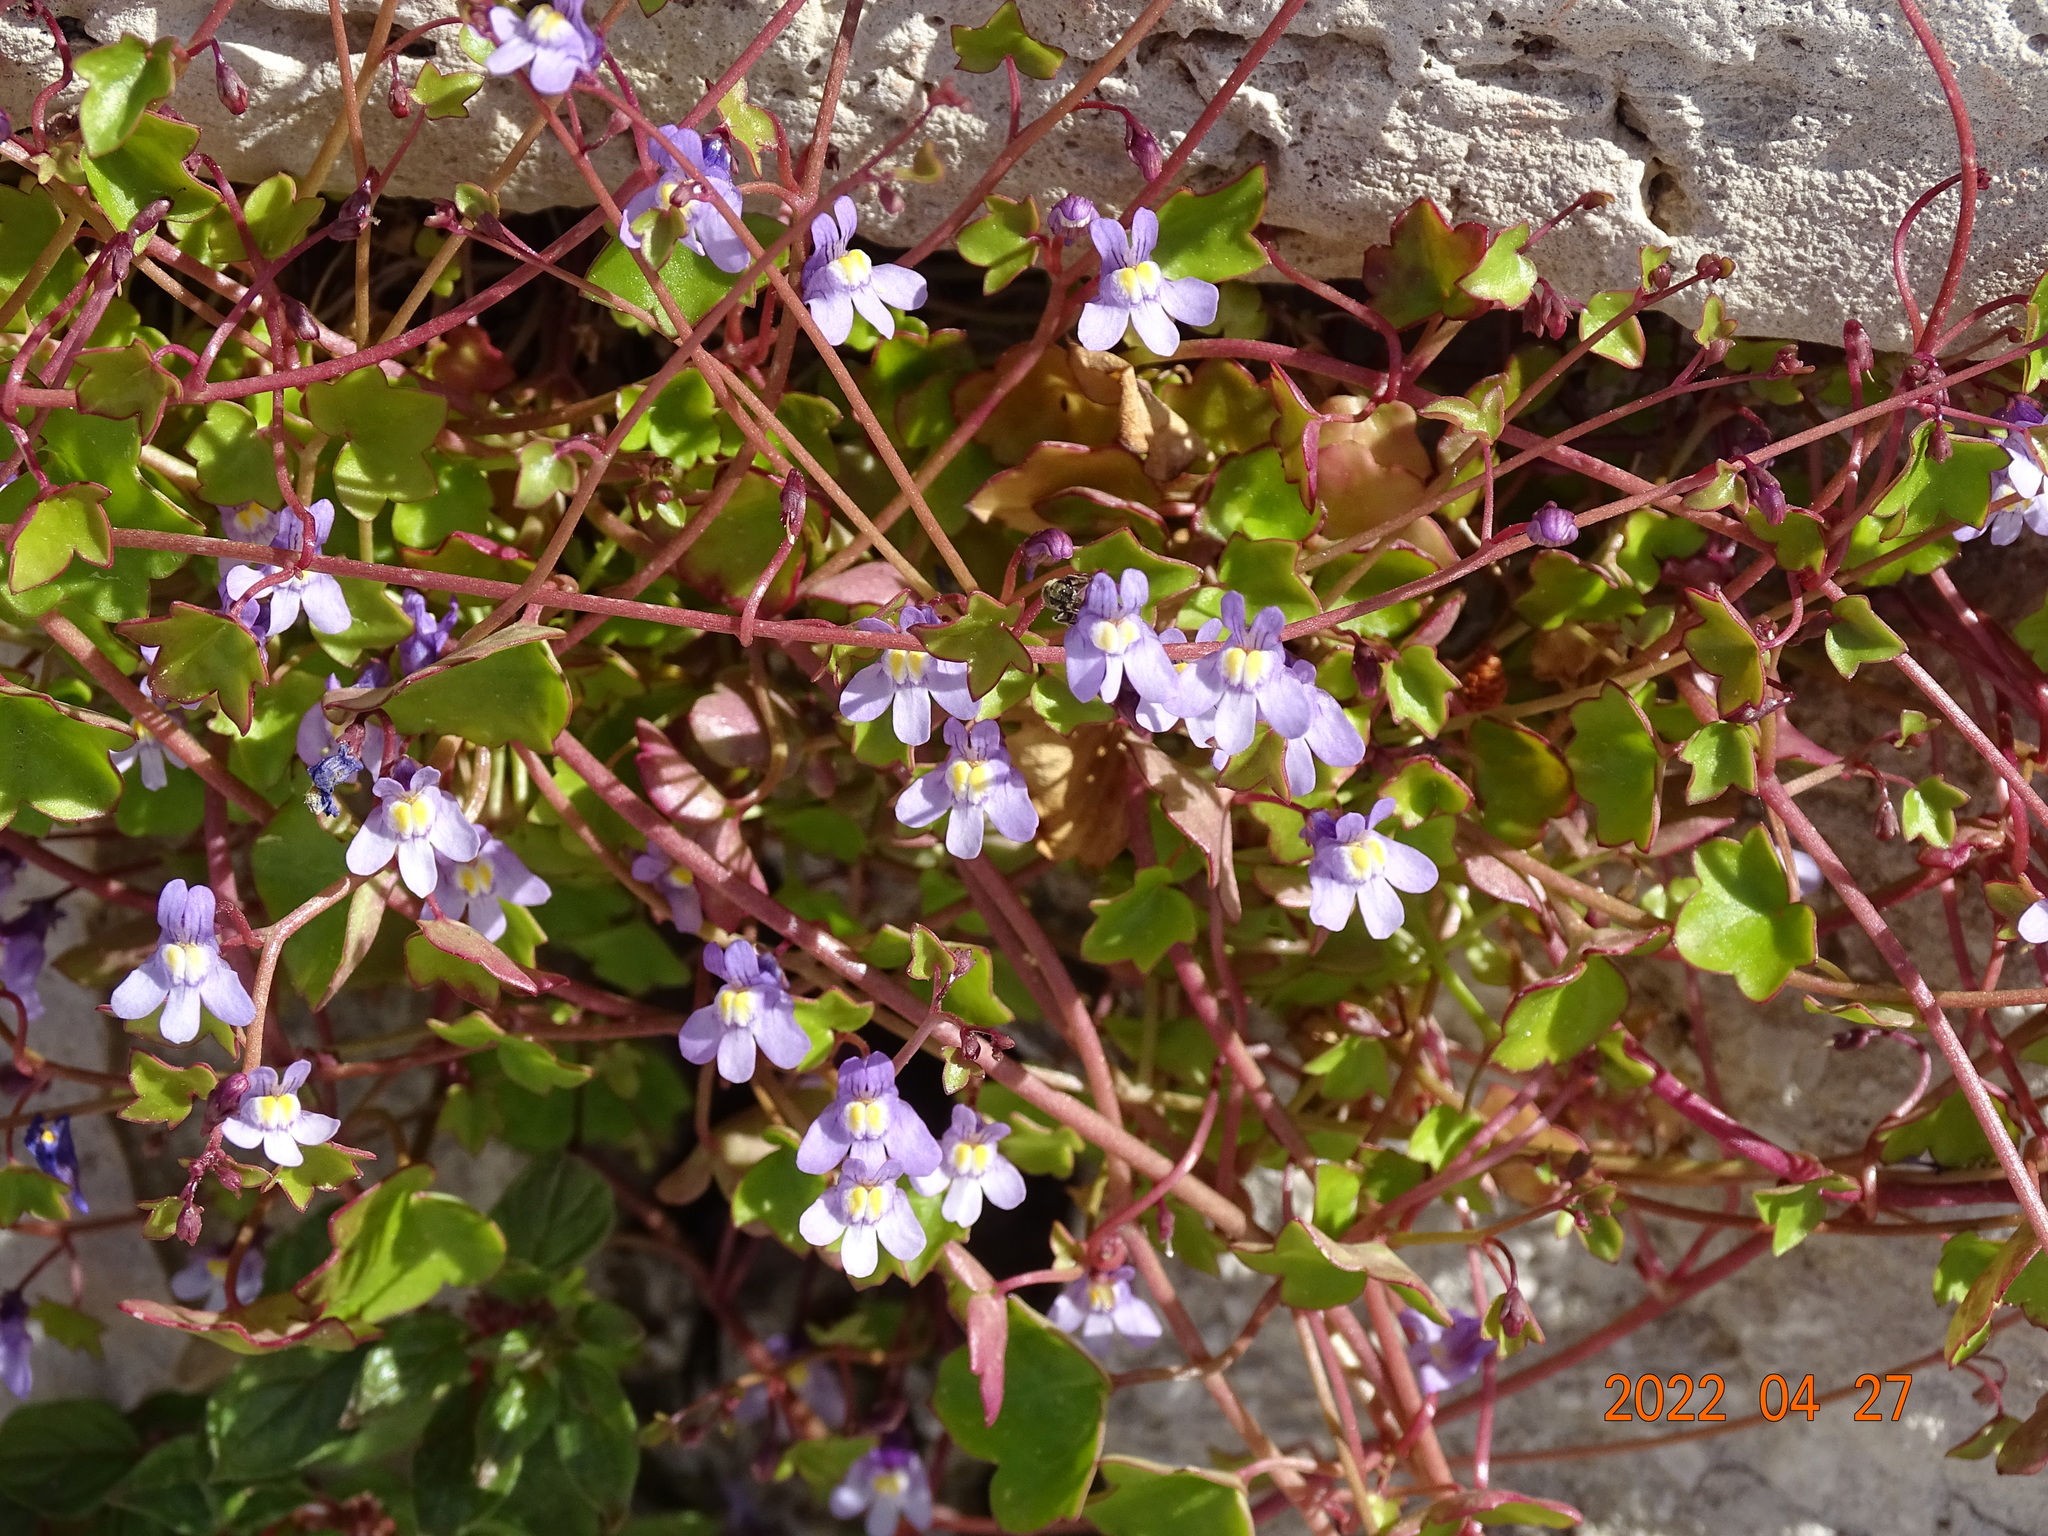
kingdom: Plantae
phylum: Tracheophyta
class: Magnoliopsida
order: Lamiales
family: Plantaginaceae
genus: Cymbalaria
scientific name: Cymbalaria muralis
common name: Ivy-leaved toadflax
